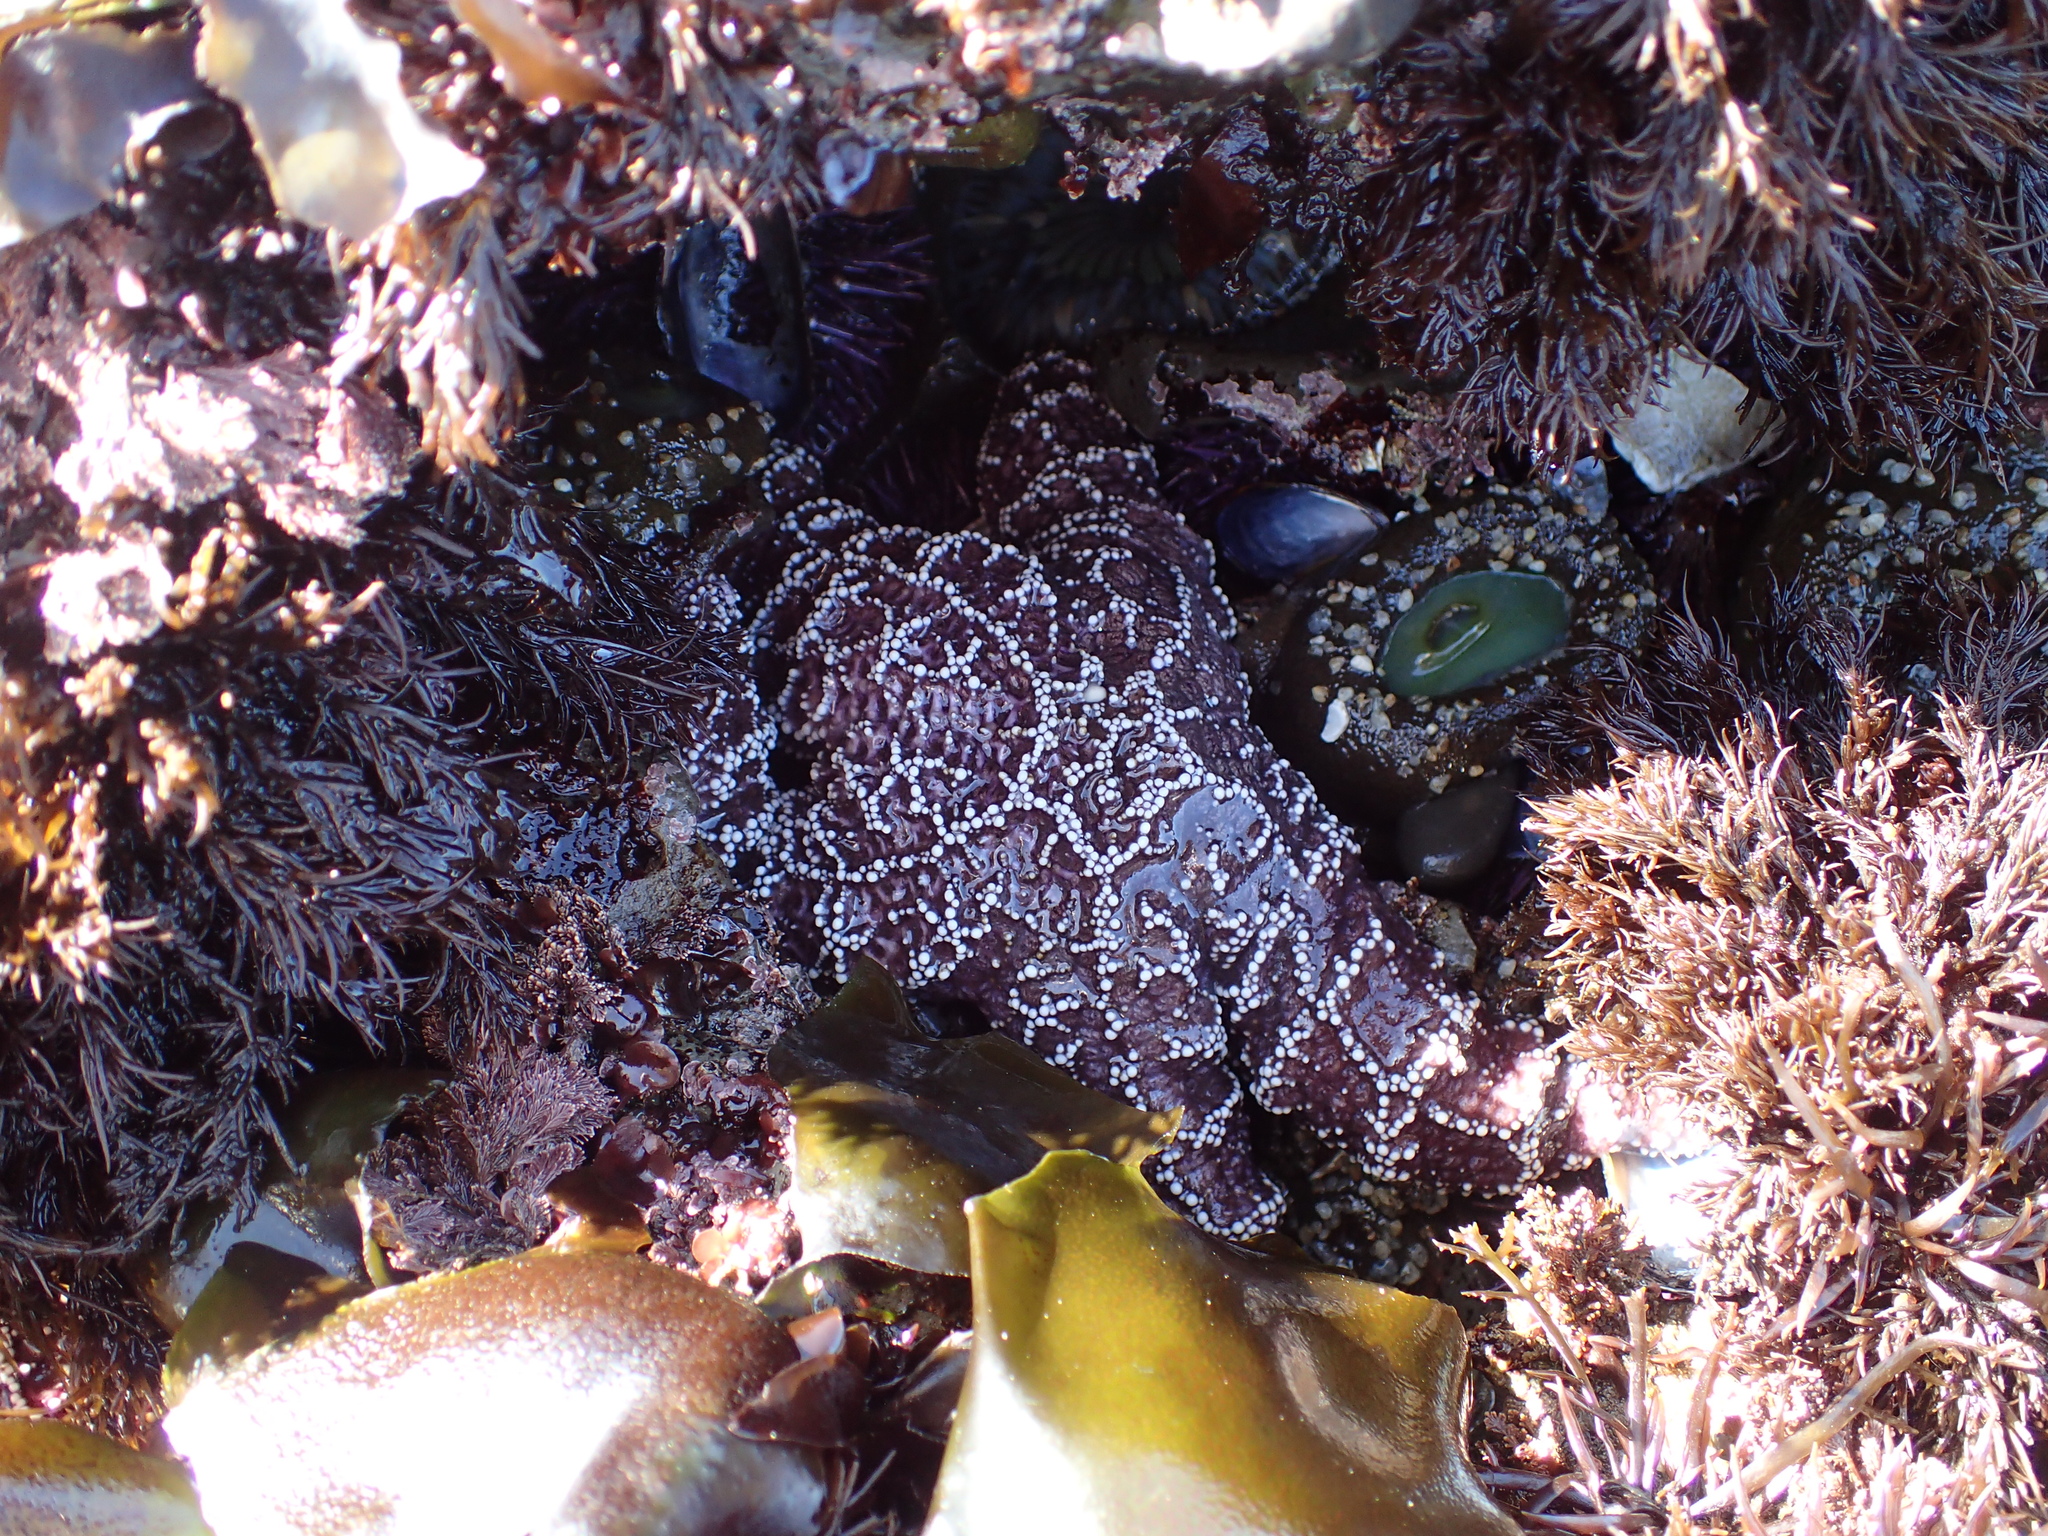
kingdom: Animalia
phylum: Echinodermata
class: Asteroidea
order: Forcipulatida
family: Asteriidae
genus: Pisaster
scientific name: Pisaster ochraceus
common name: Ochre stars
